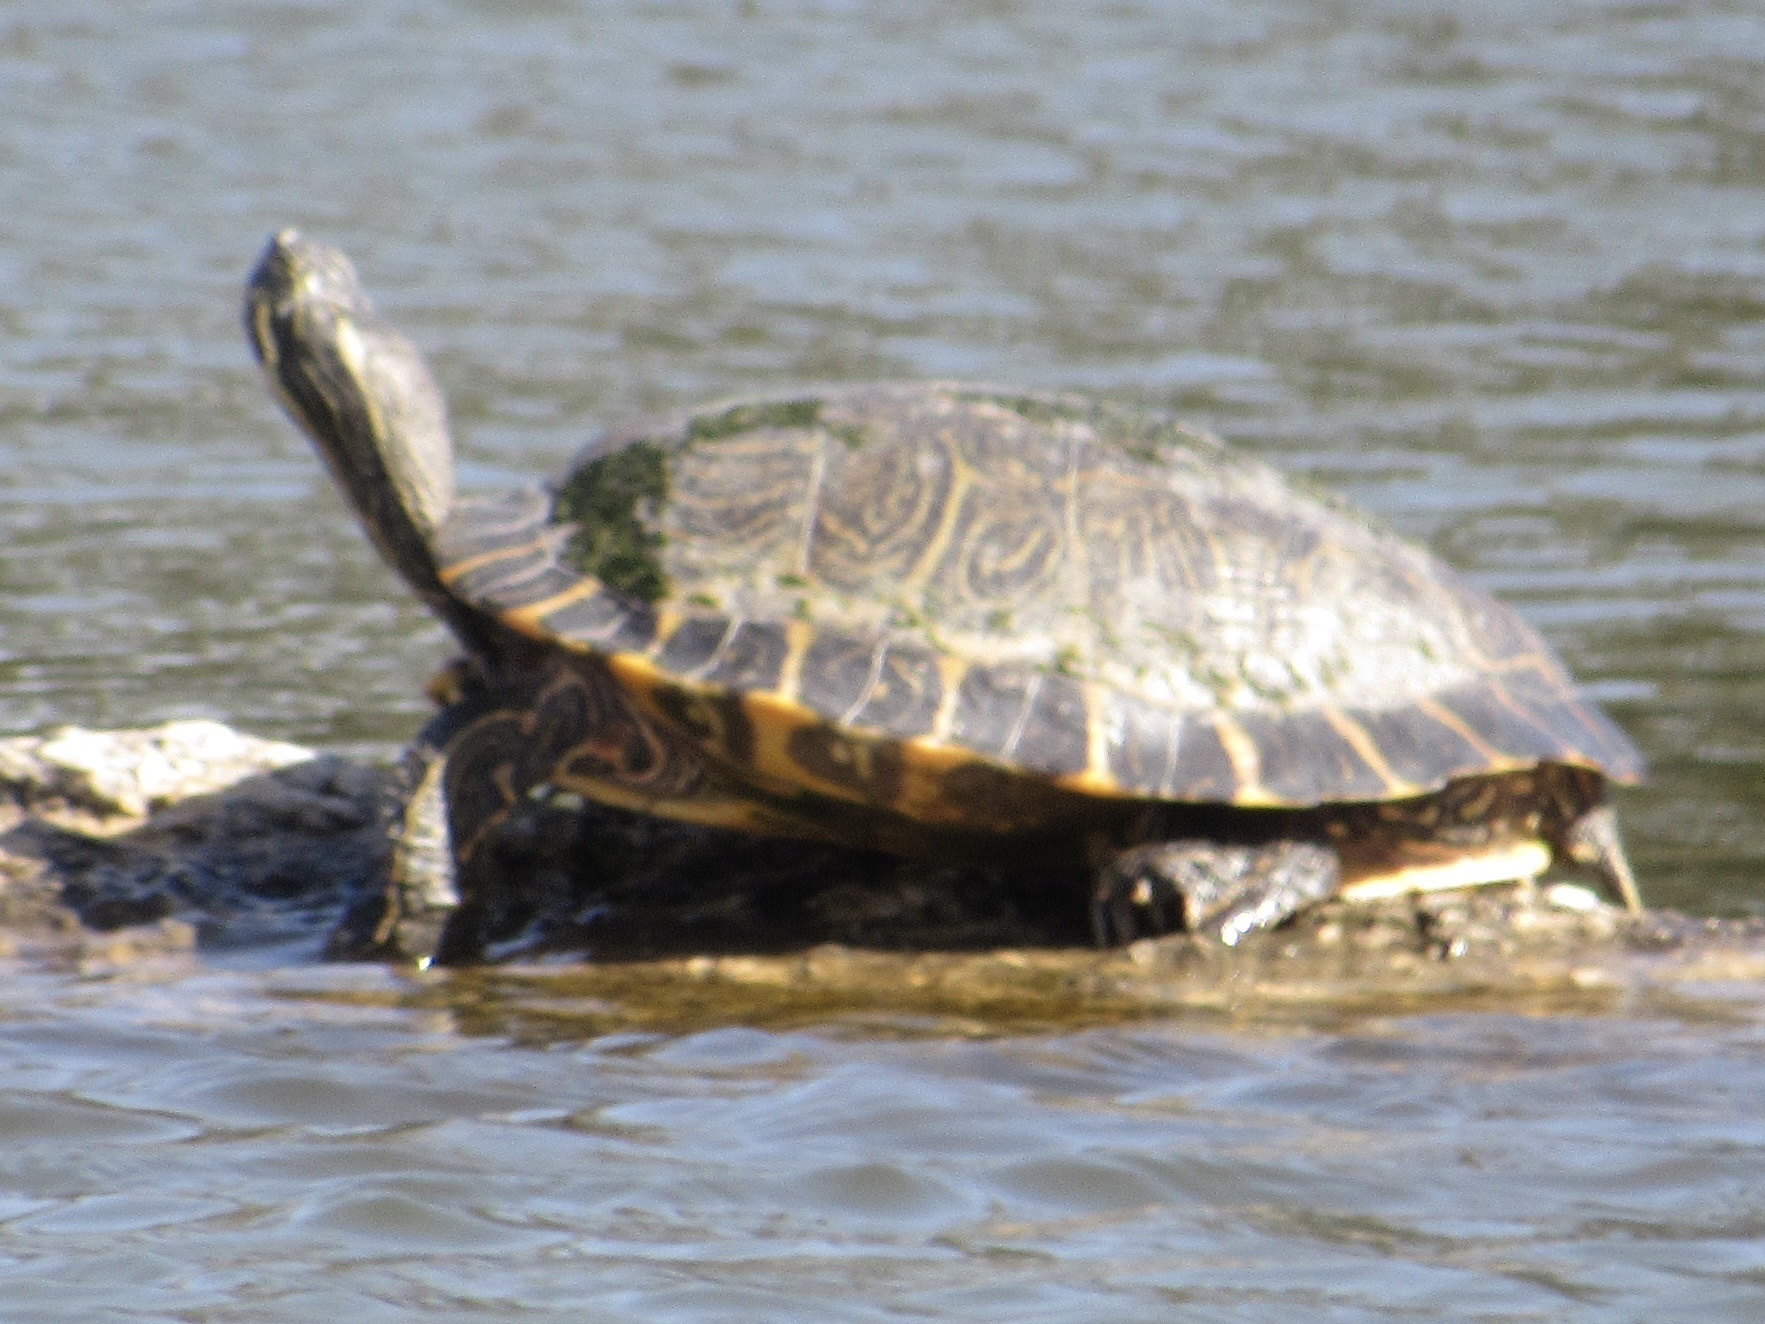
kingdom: Animalia
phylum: Chordata
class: Testudines
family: Emydidae
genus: Pseudemys
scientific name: Pseudemys concinna
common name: Eastern river cooter
